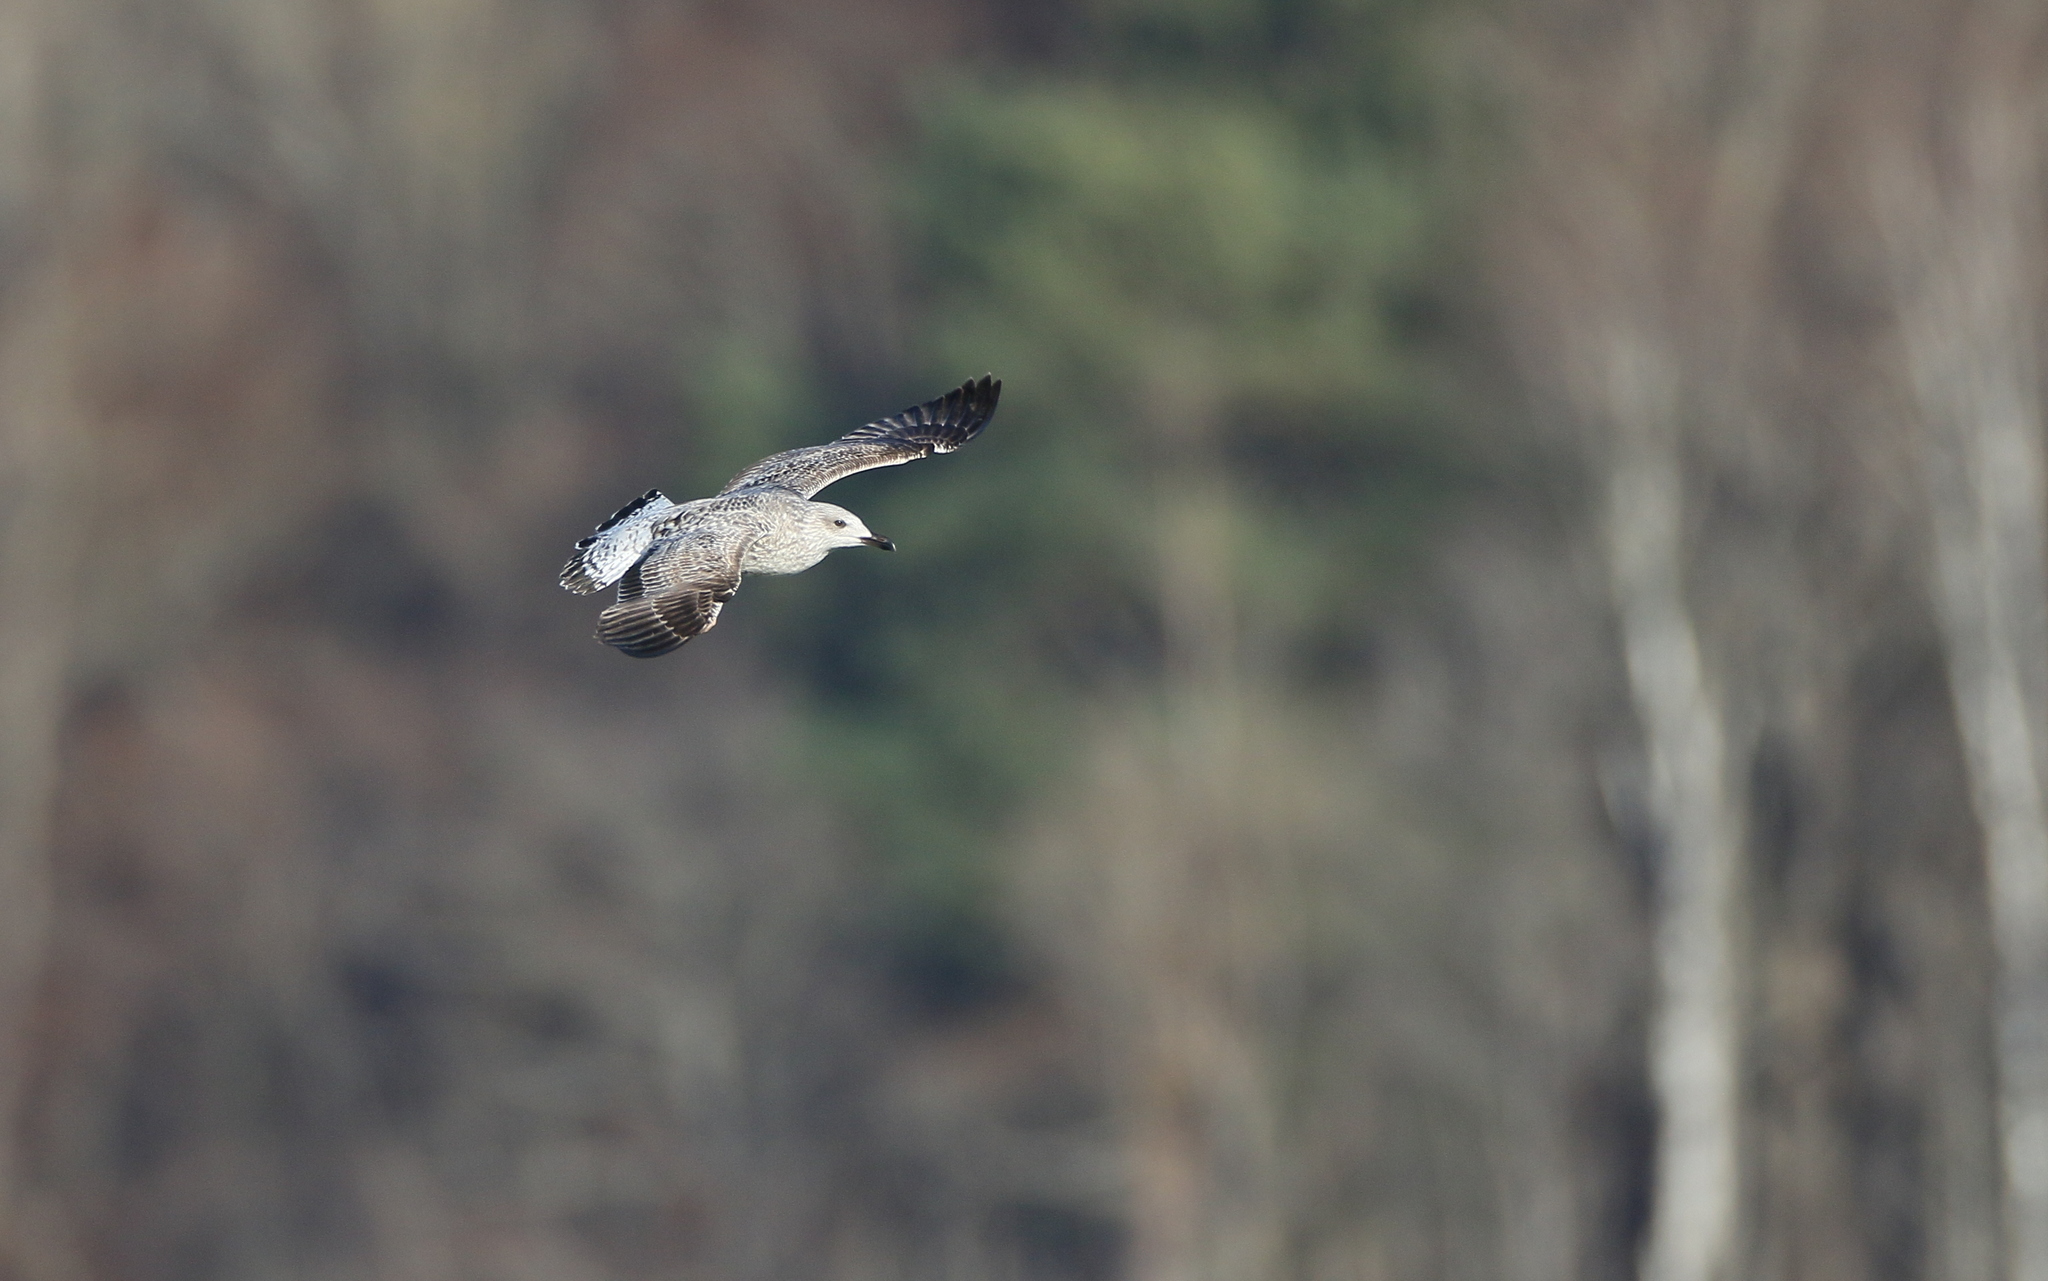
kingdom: Animalia
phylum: Chordata
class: Aves
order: Charadriiformes
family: Laridae
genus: Larus
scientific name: Larus michahellis
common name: Yellow-legged gull
